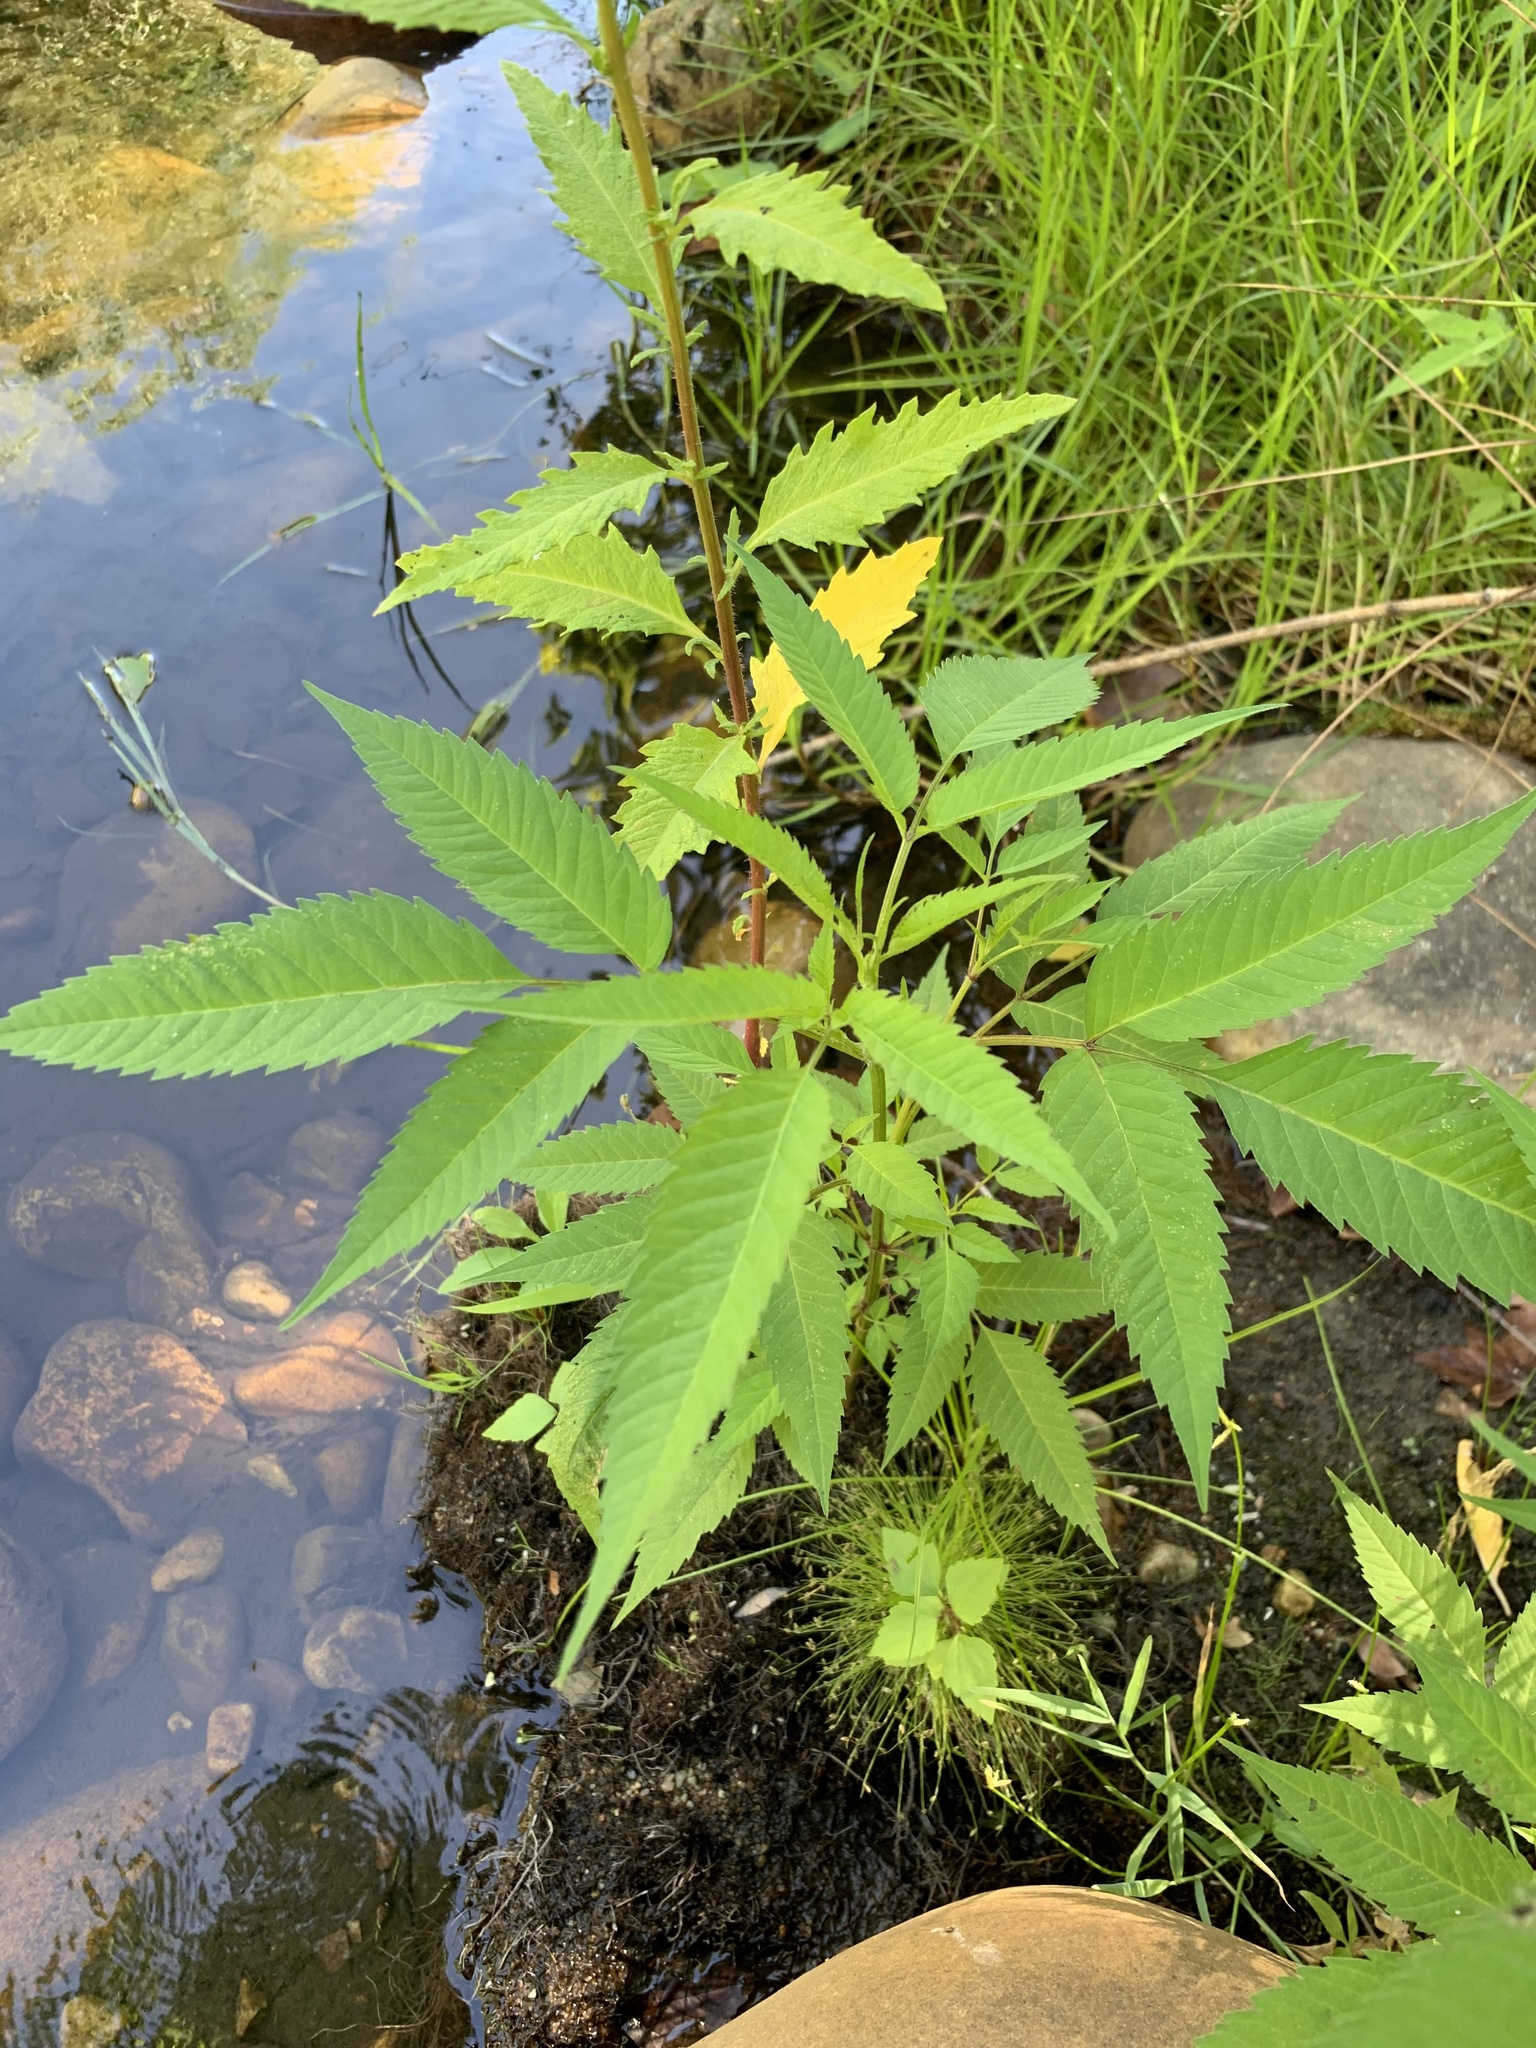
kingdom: Plantae
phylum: Tracheophyta
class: Magnoliopsida
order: Asterales
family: Asteraceae
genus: Bidens
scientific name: Bidens frondosa
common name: Beggarticks
